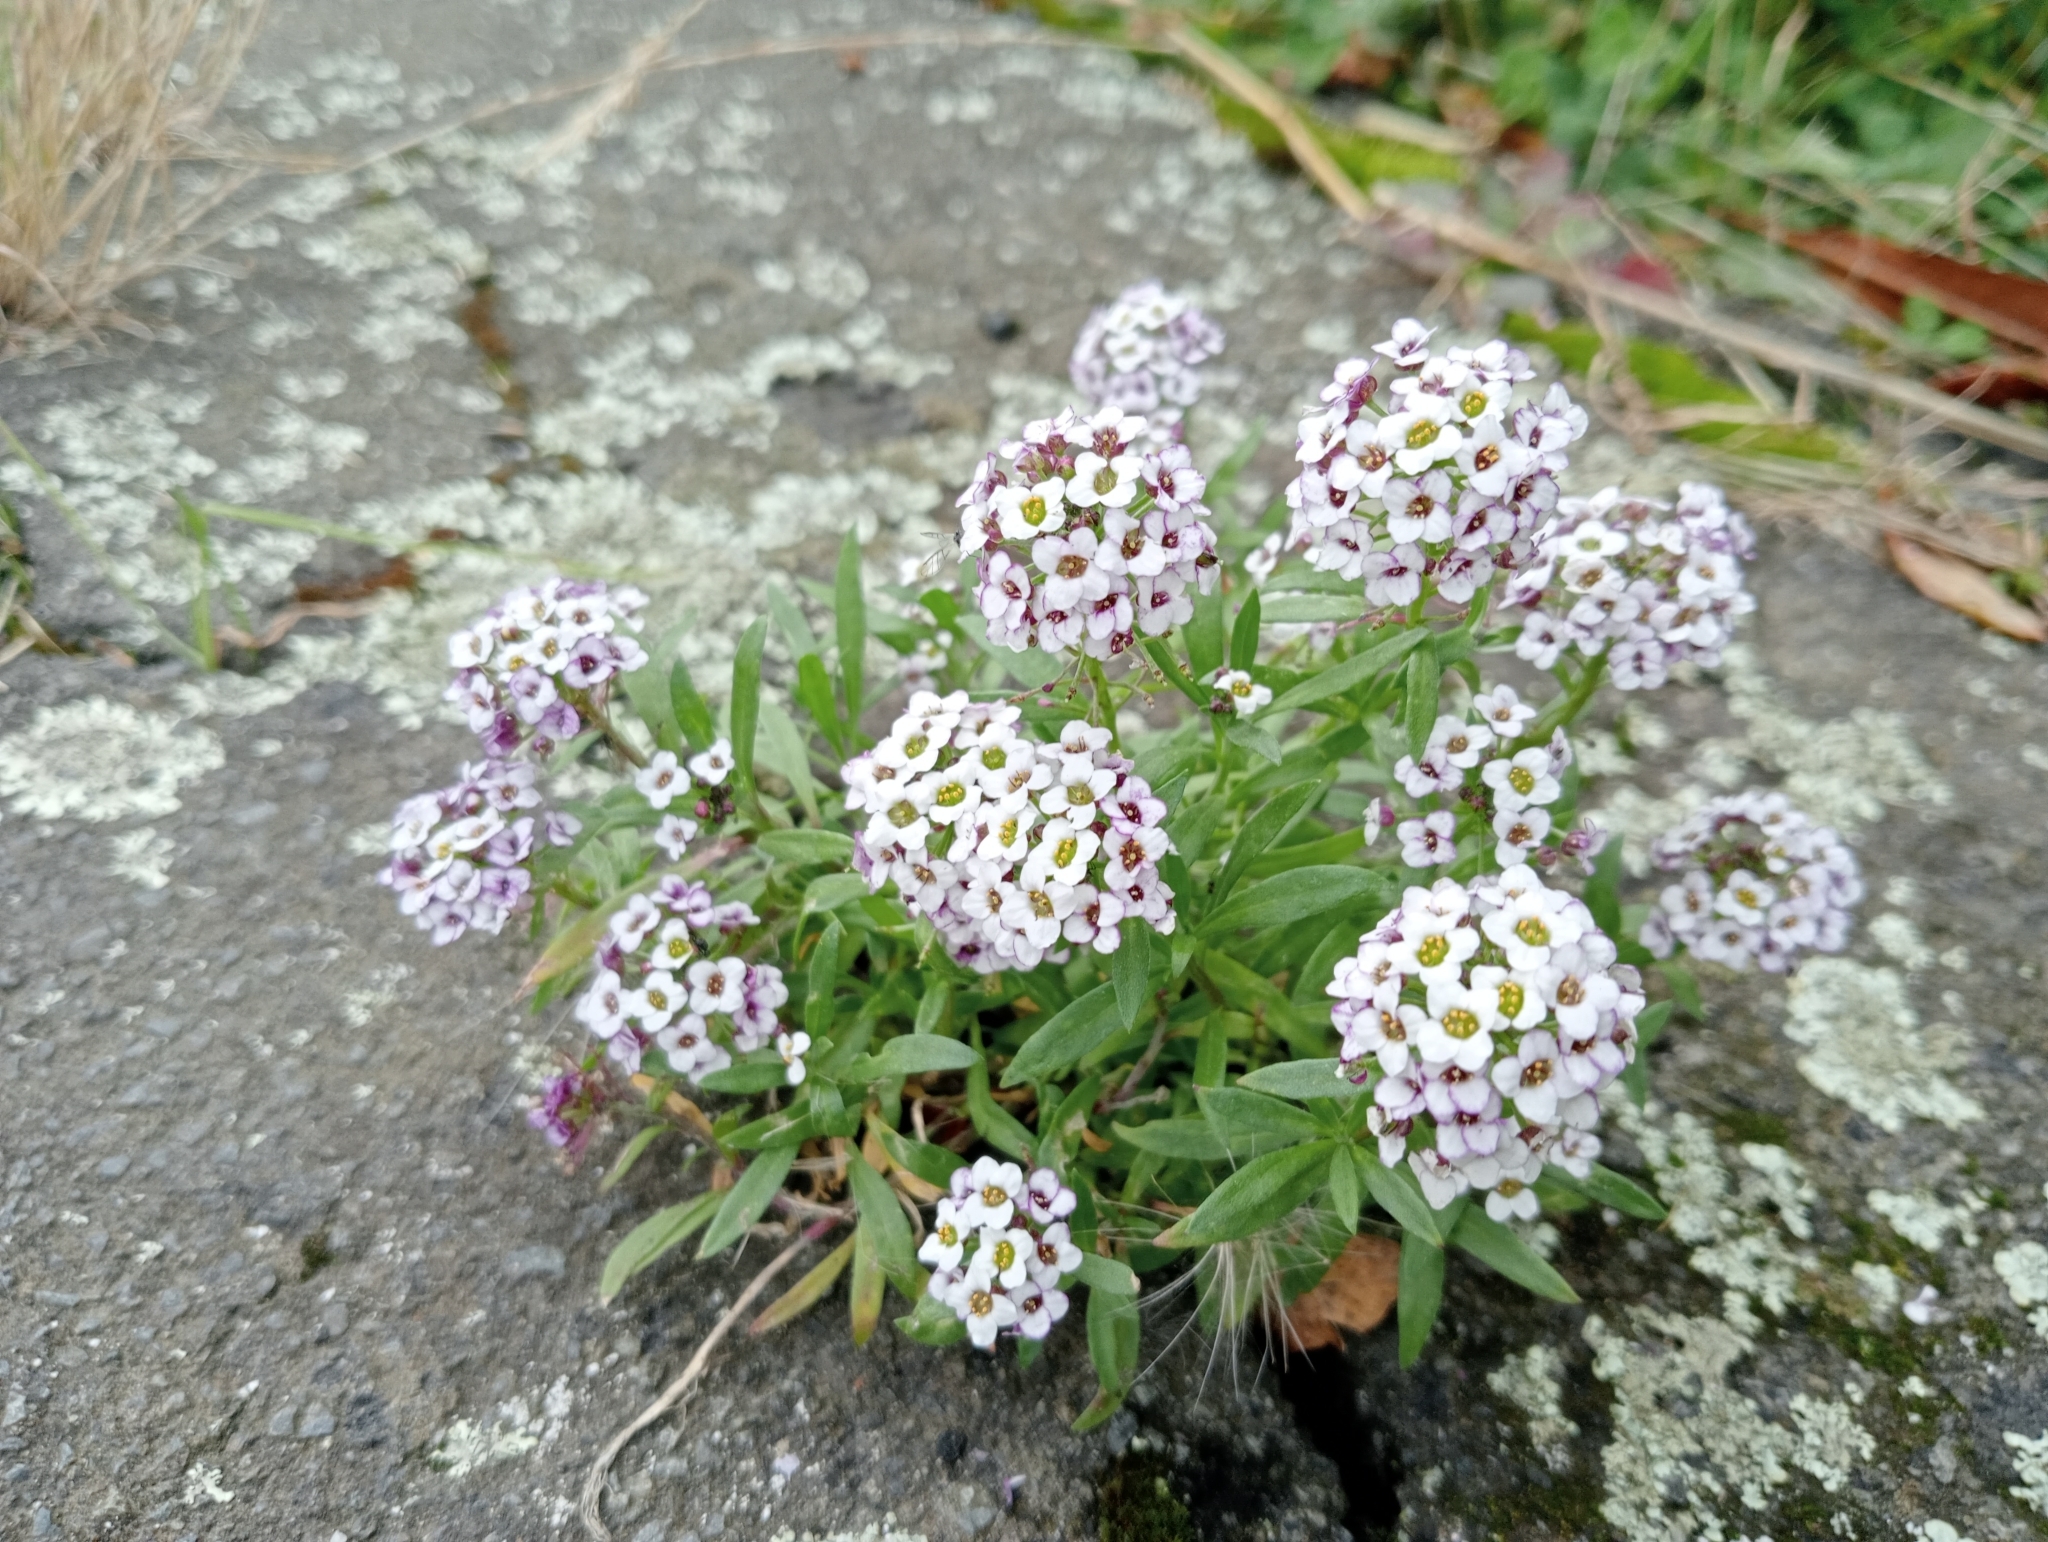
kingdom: Plantae
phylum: Tracheophyta
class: Magnoliopsida
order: Brassicales
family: Brassicaceae
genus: Lobularia
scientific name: Lobularia maritima
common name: Sweet alison
